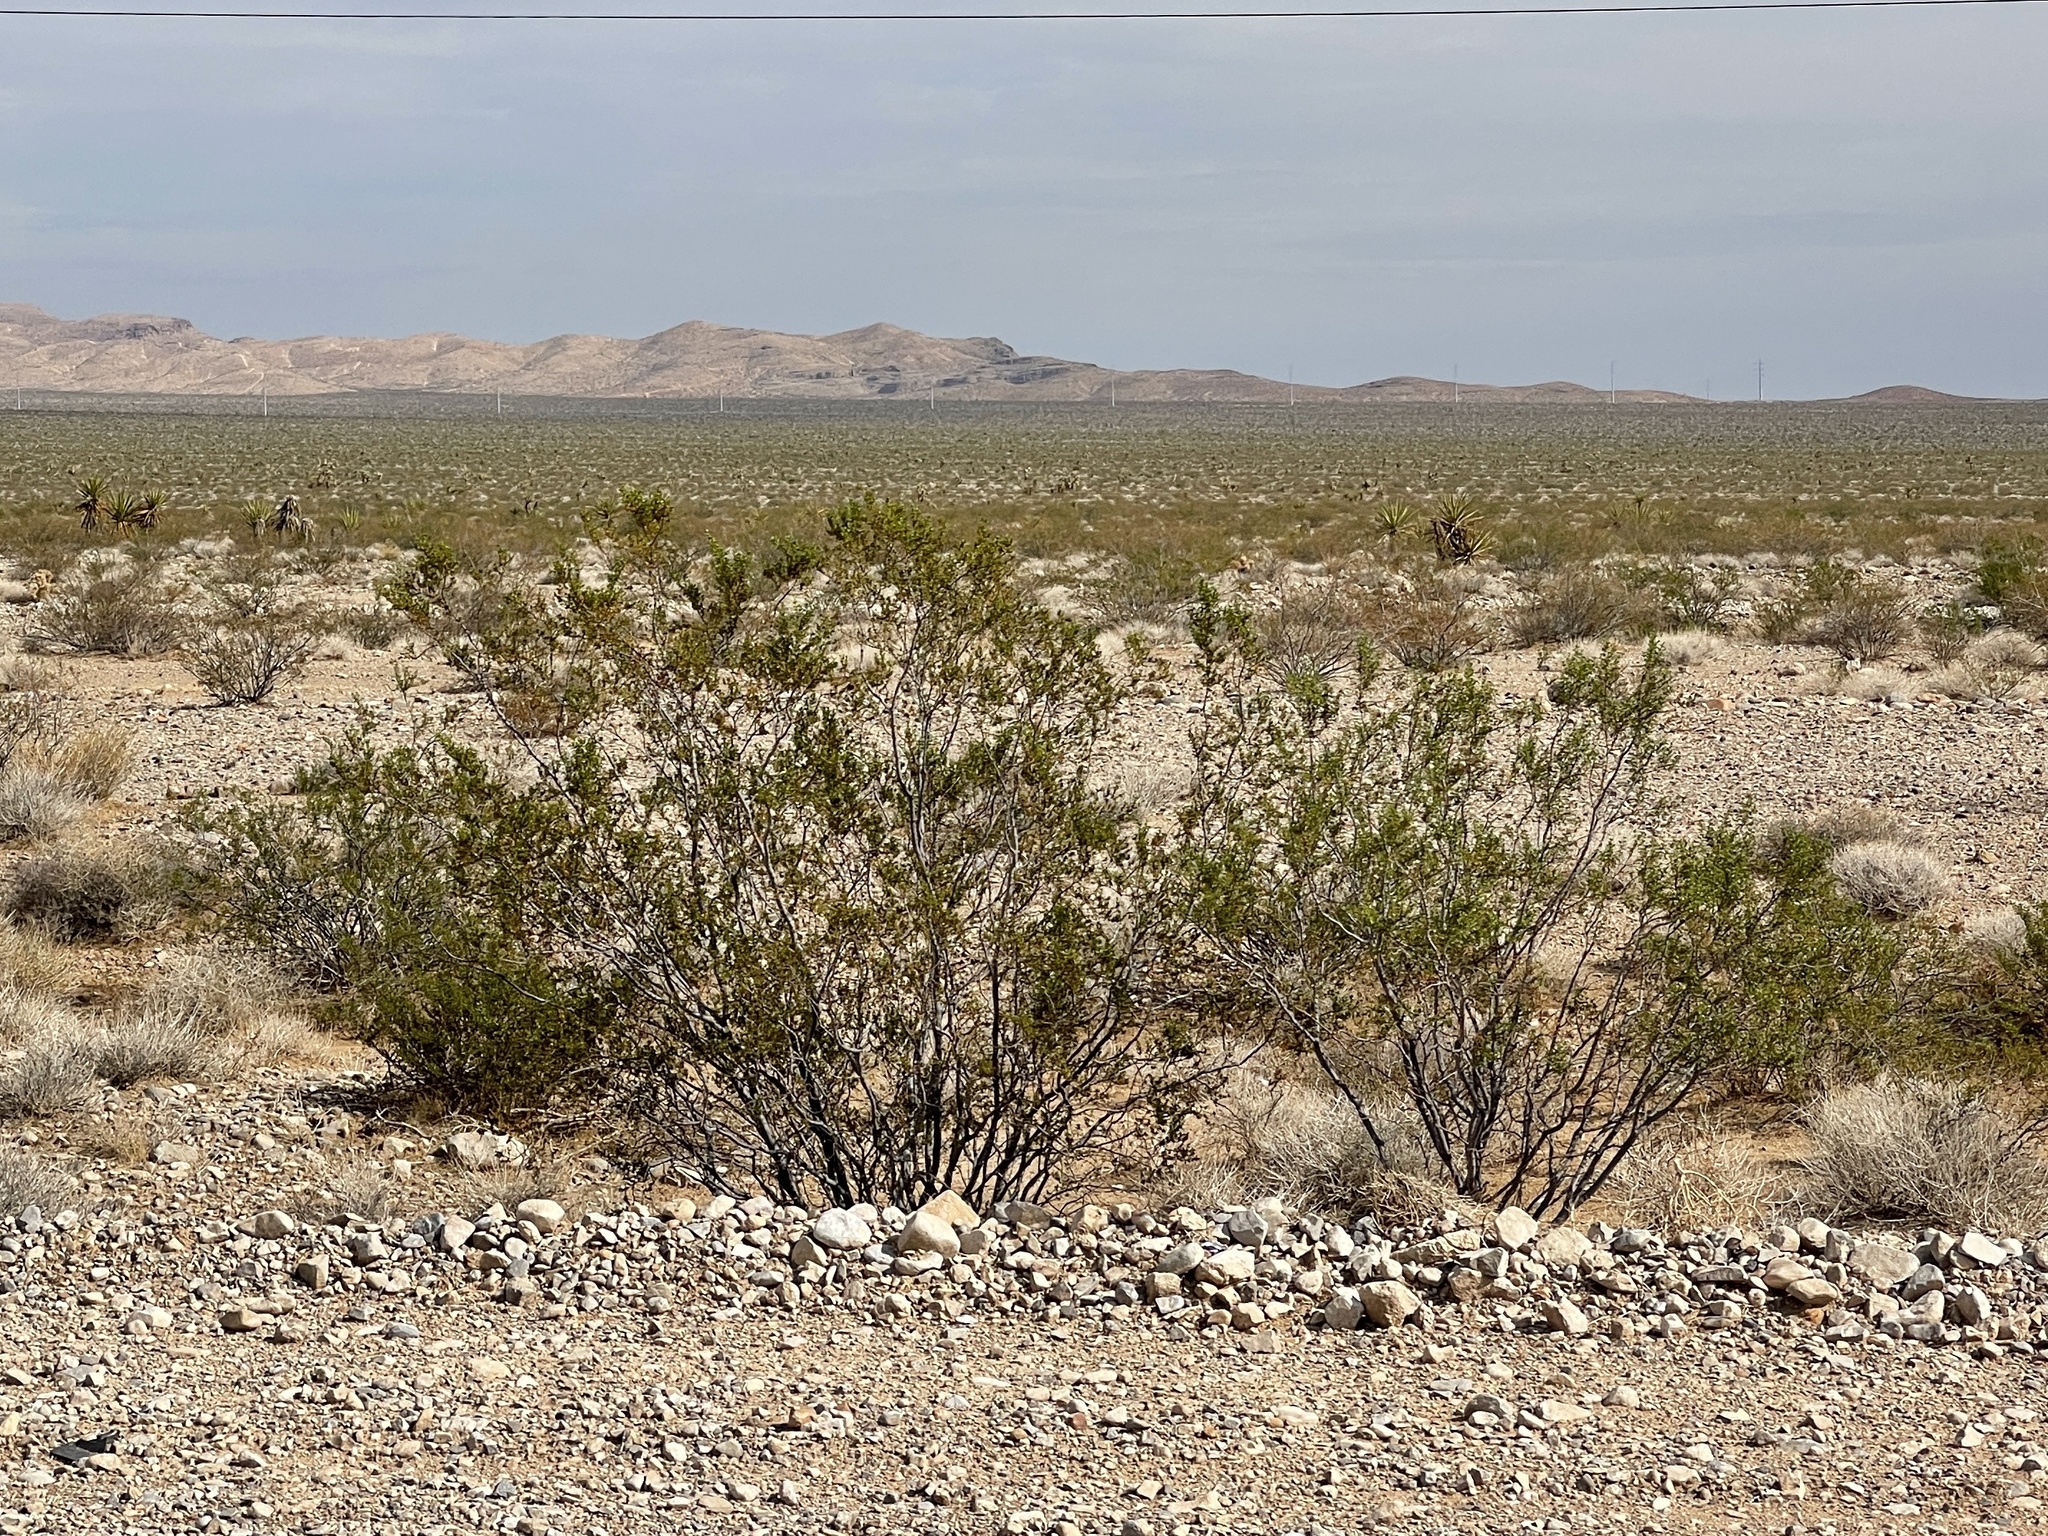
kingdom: Plantae
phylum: Tracheophyta
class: Magnoliopsida
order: Zygophyllales
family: Zygophyllaceae
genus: Larrea
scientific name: Larrea tridentata
